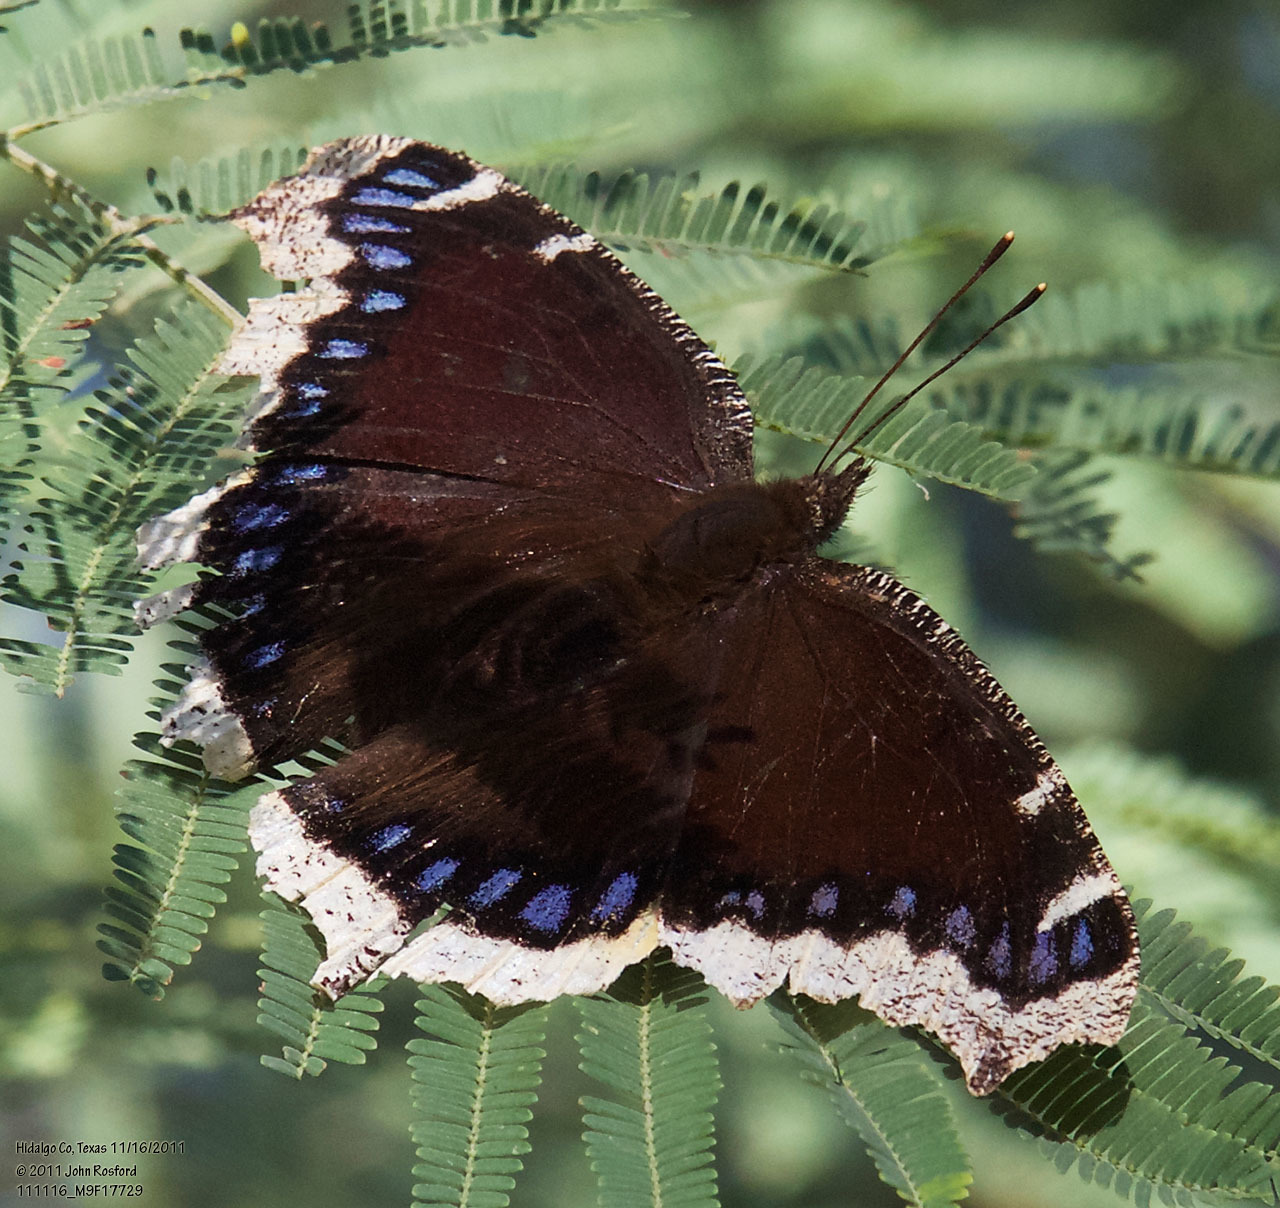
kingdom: Animalia
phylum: Arthropoda
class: Insecta
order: Lepidoptera
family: Nymphalidae
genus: Nymphalis
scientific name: Nymphalis antiopa
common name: Camberwell beauty
